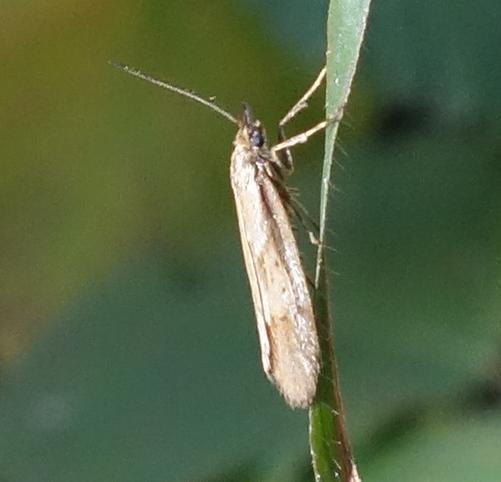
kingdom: Animalia
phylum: Arthropoda
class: Insecta
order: Lepidoptera
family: Lypusidae
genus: Diurnea
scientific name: Diurnea lipsiella
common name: November tubic
